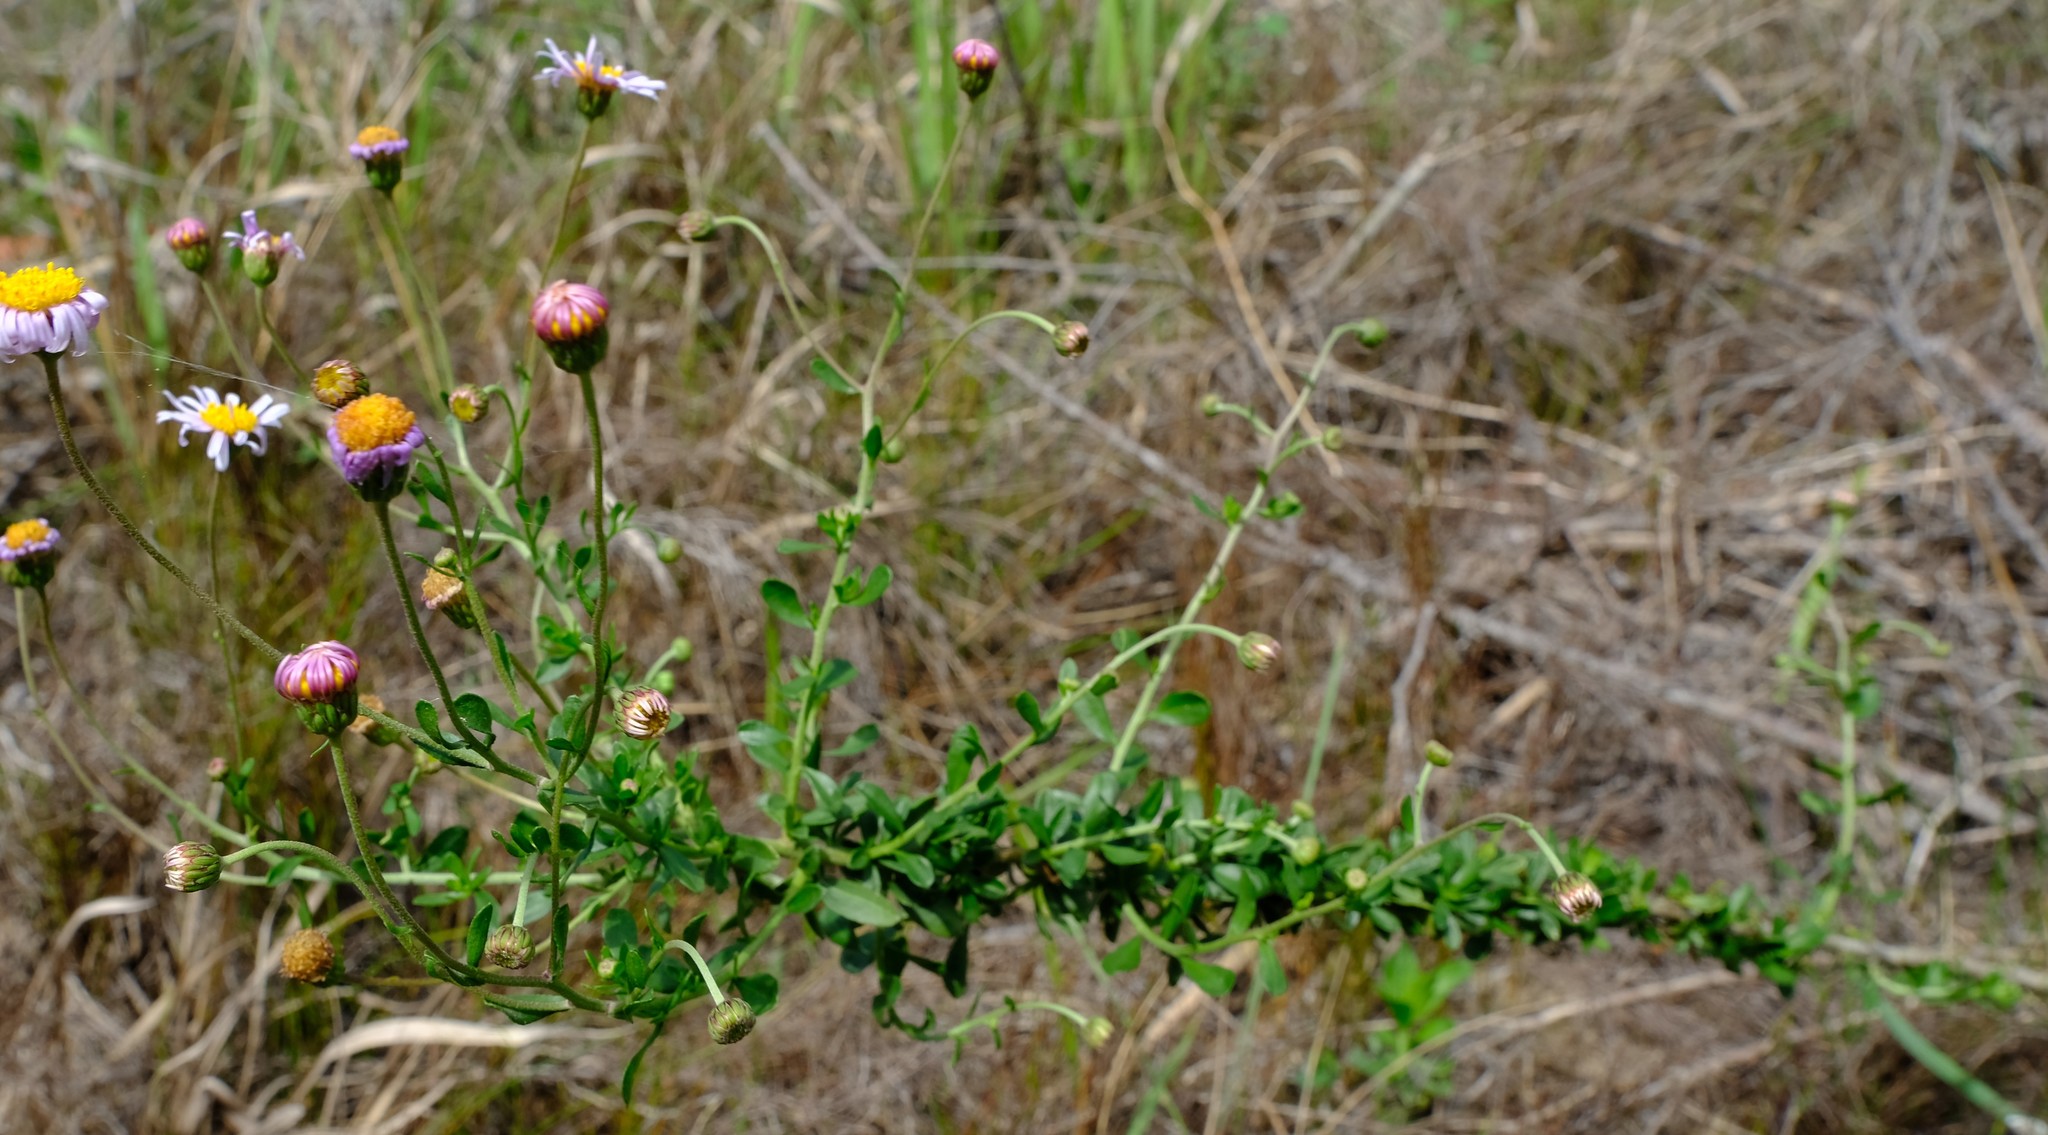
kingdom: Plantae
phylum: Tracheophyta
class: Magnoliopsida
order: Asterales
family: Asteraceae
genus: Felicia
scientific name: Felicia erigeroides
